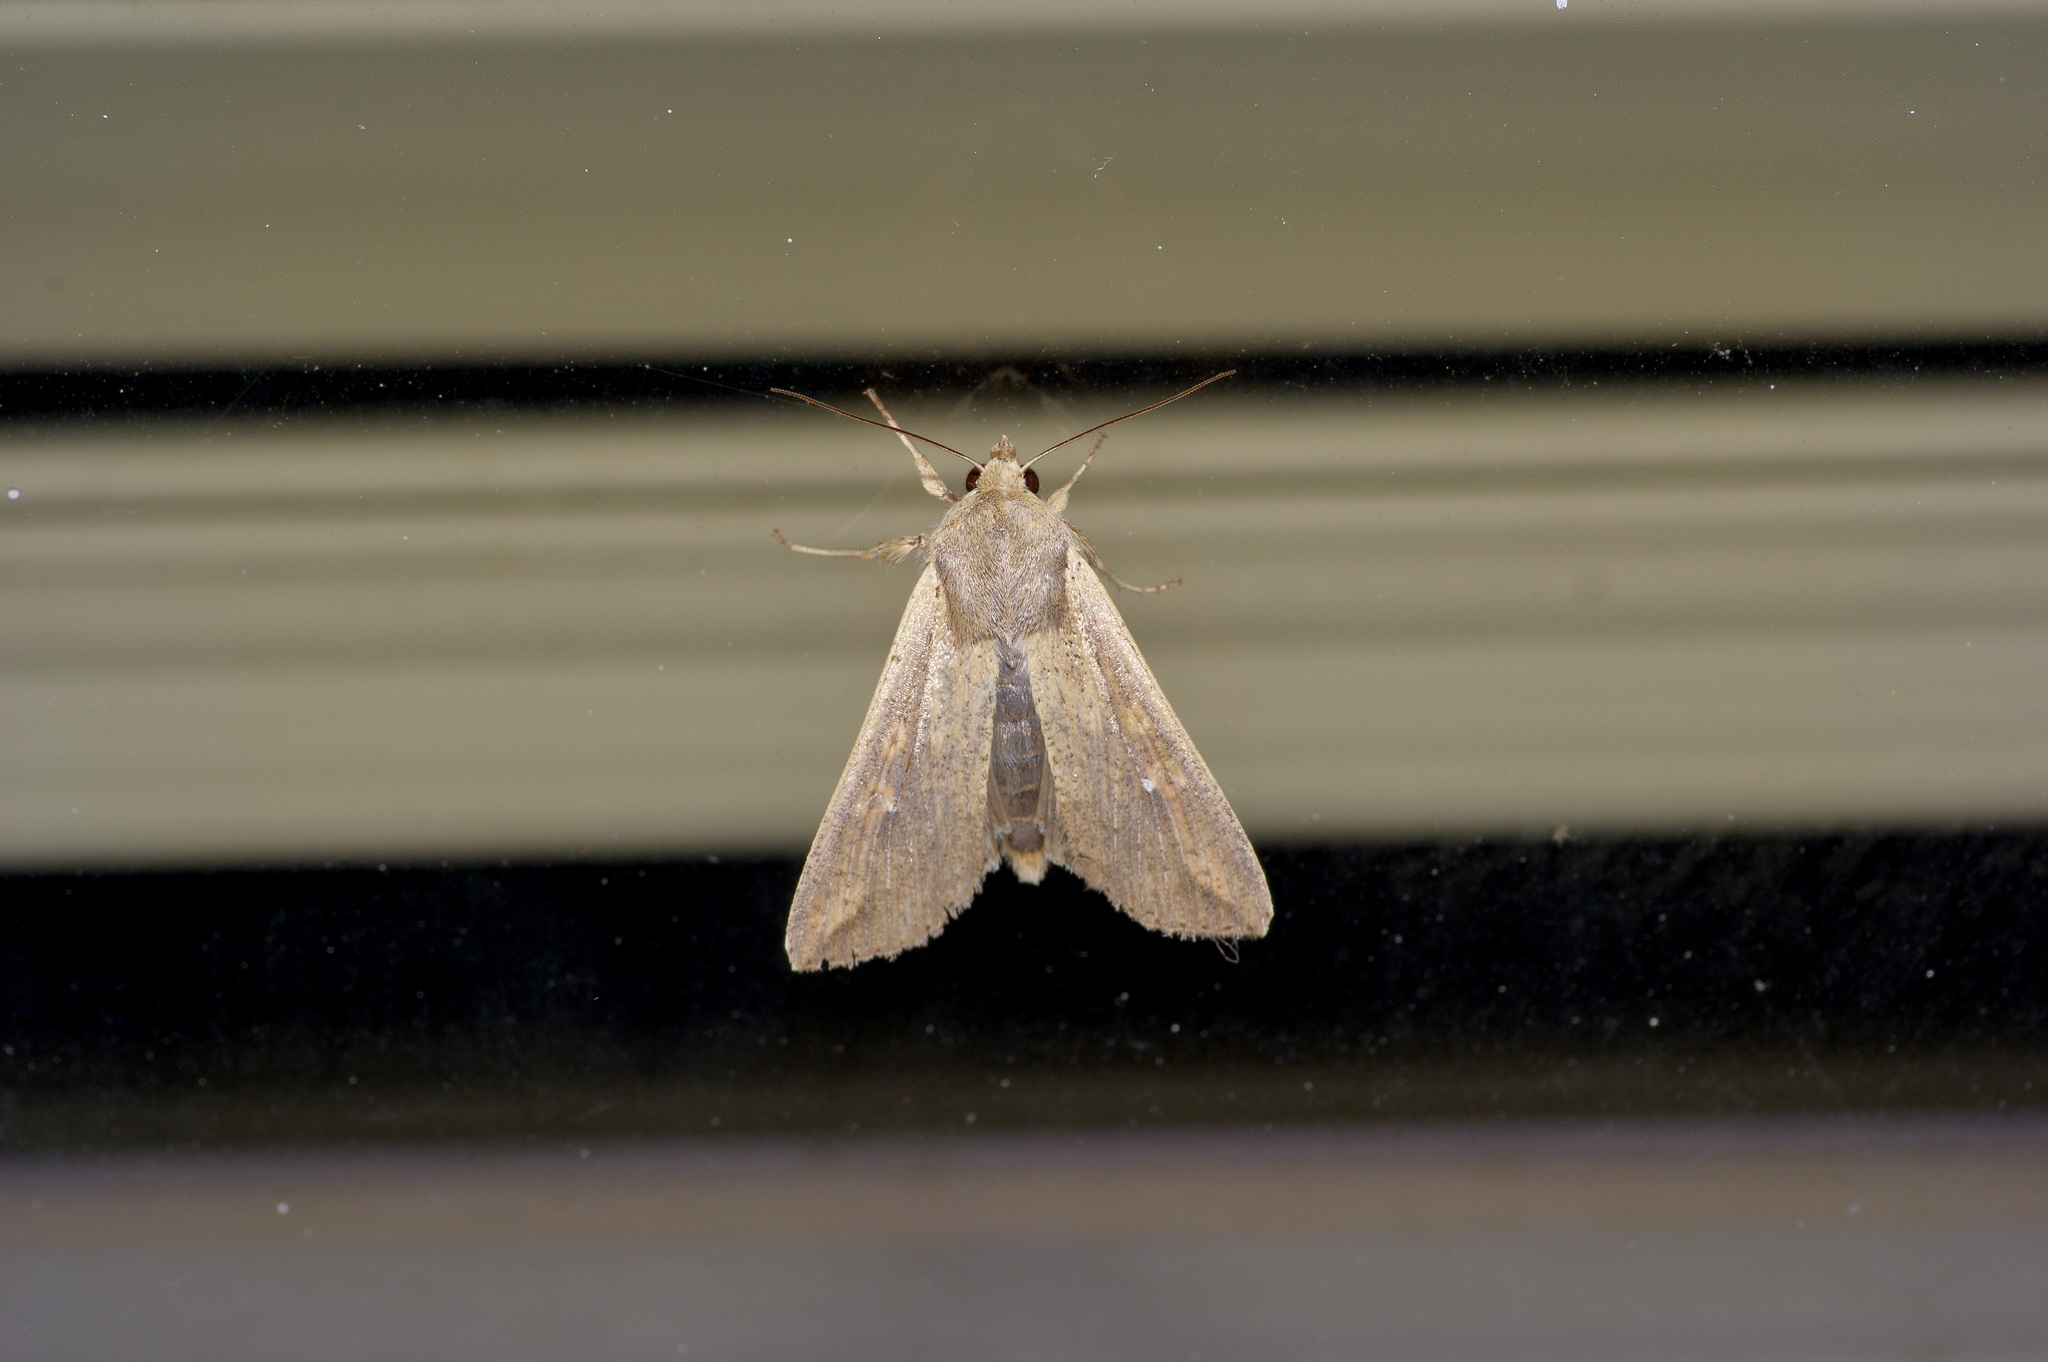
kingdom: Animalia
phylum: Arthropoda
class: Insecta
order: Lepidoptera
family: Noctuidae
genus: Mythimna
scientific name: Mythimna unipuncta
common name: White-speck
